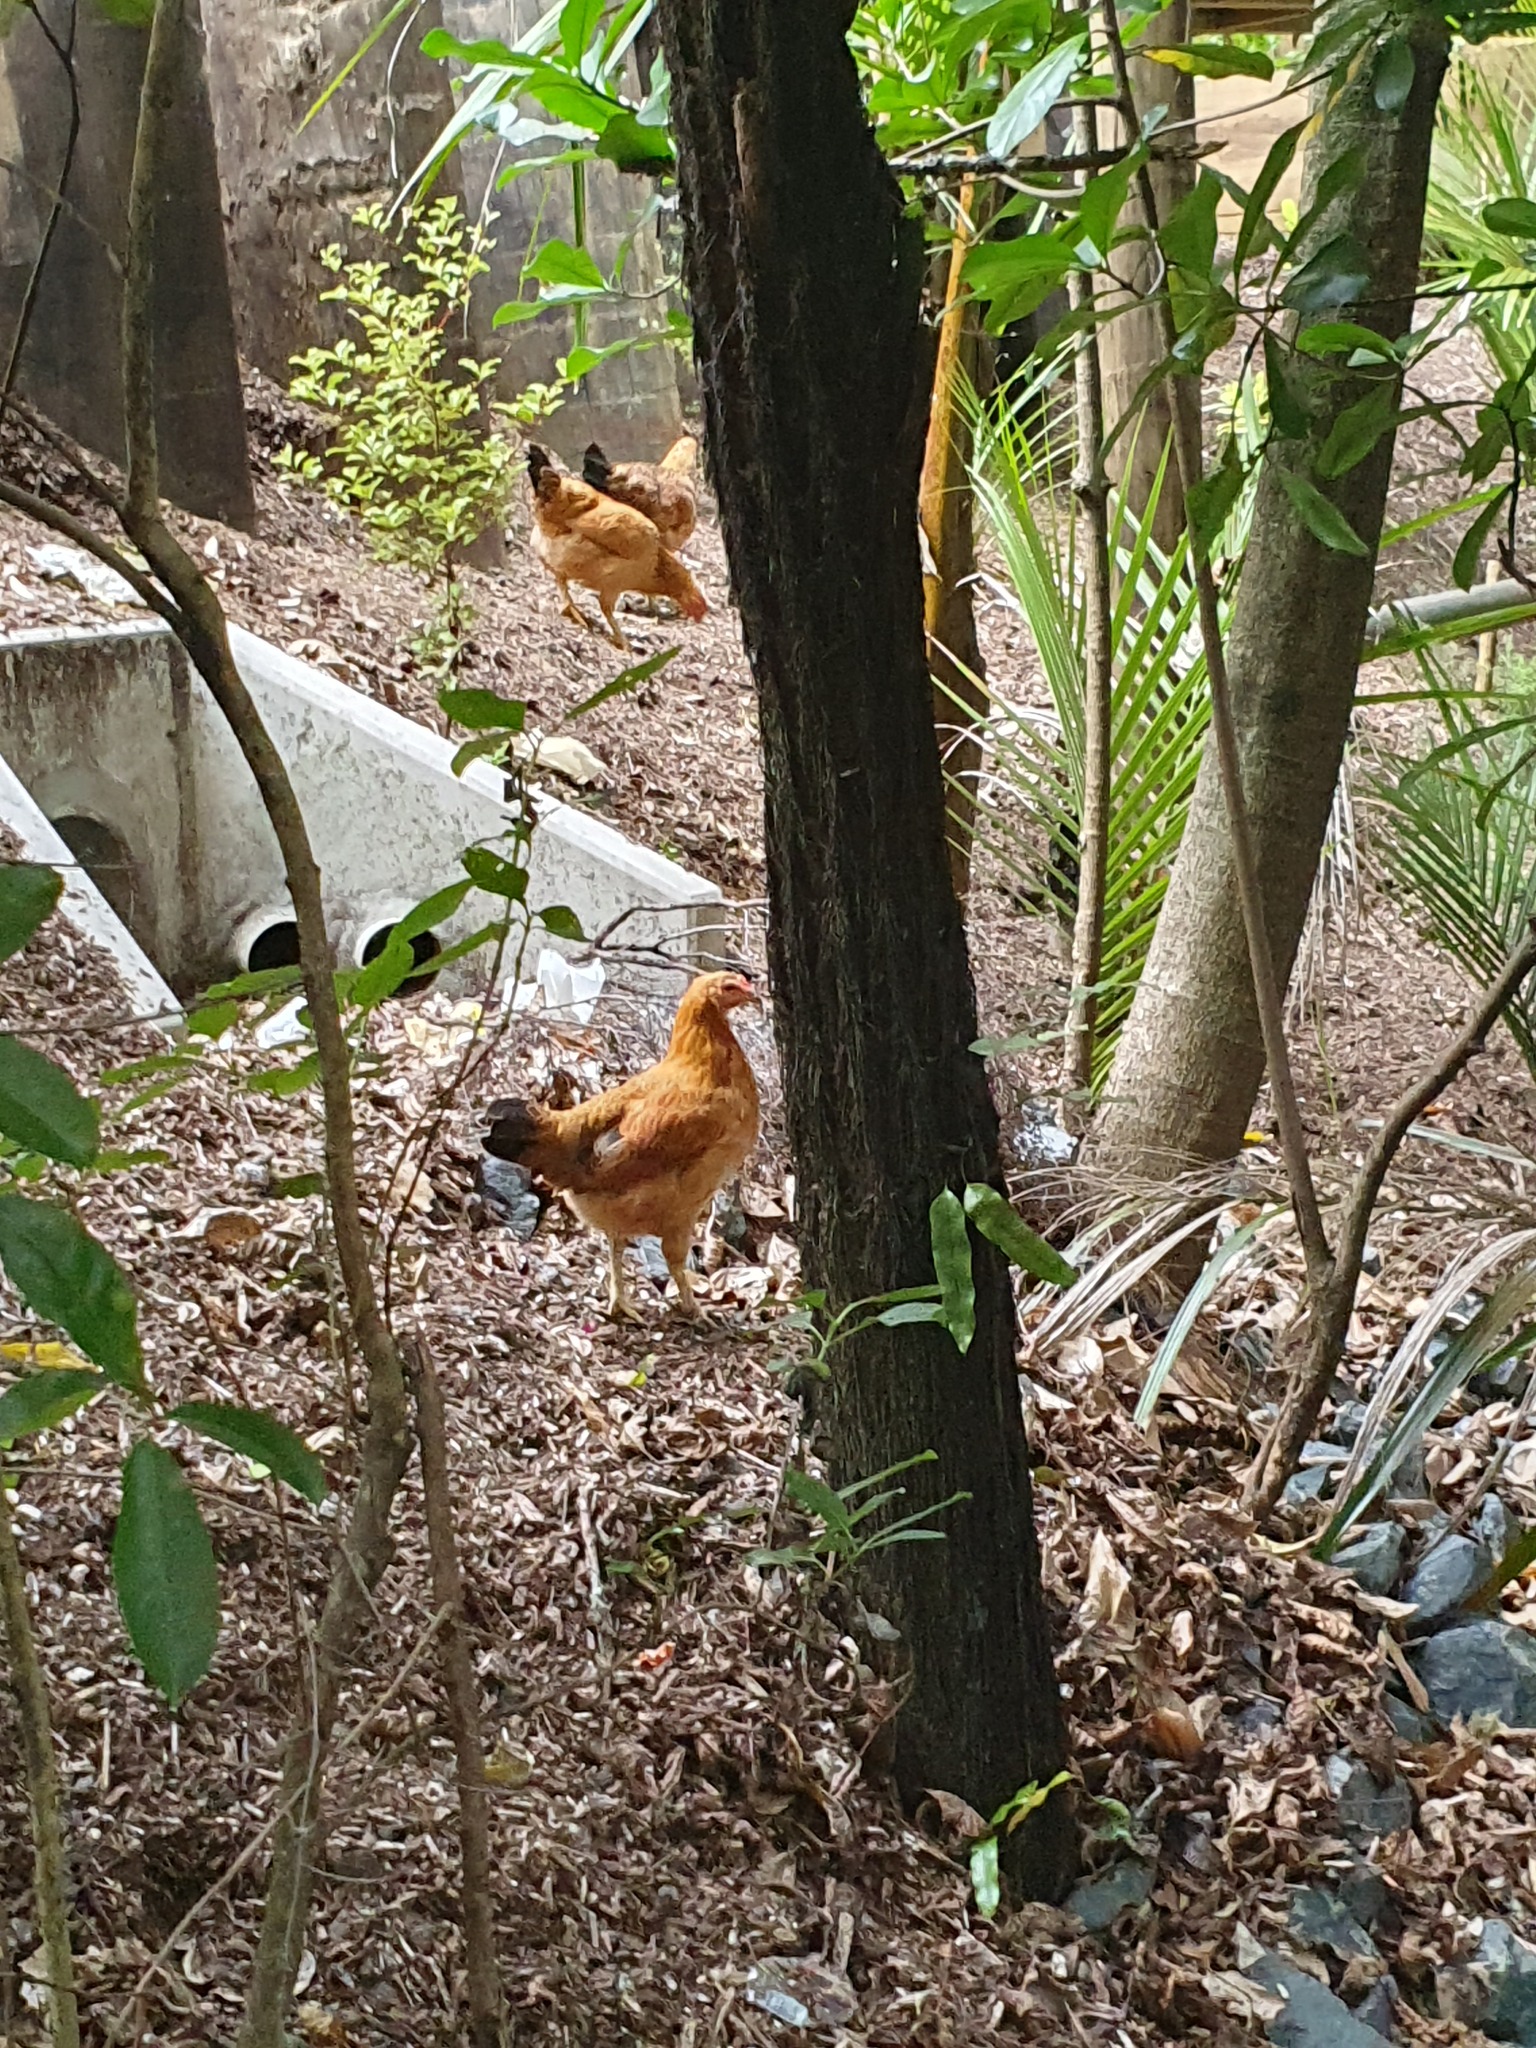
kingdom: Animalia
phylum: Chordata
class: Aves
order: Galliformes
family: Phasianidae
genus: Gallus
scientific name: Gallus gallus
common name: Red junglefowl
